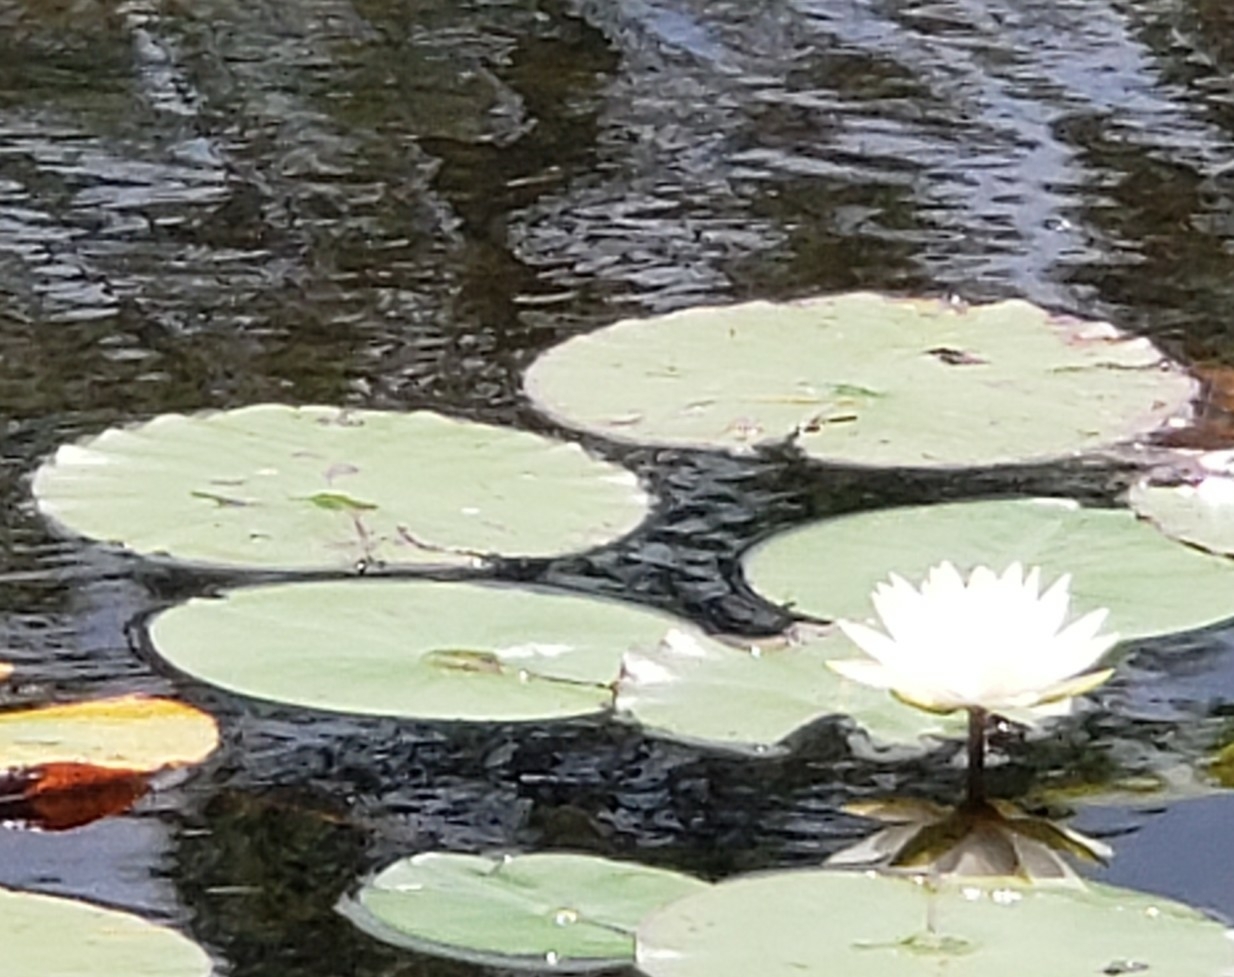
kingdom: Plantae
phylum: Tracheophyta
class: Magnoliopsida
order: Nymphaeales
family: Nymphaeaceae
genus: Nymphaea
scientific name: Nymphaea odorata
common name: Fragrant water-lily
